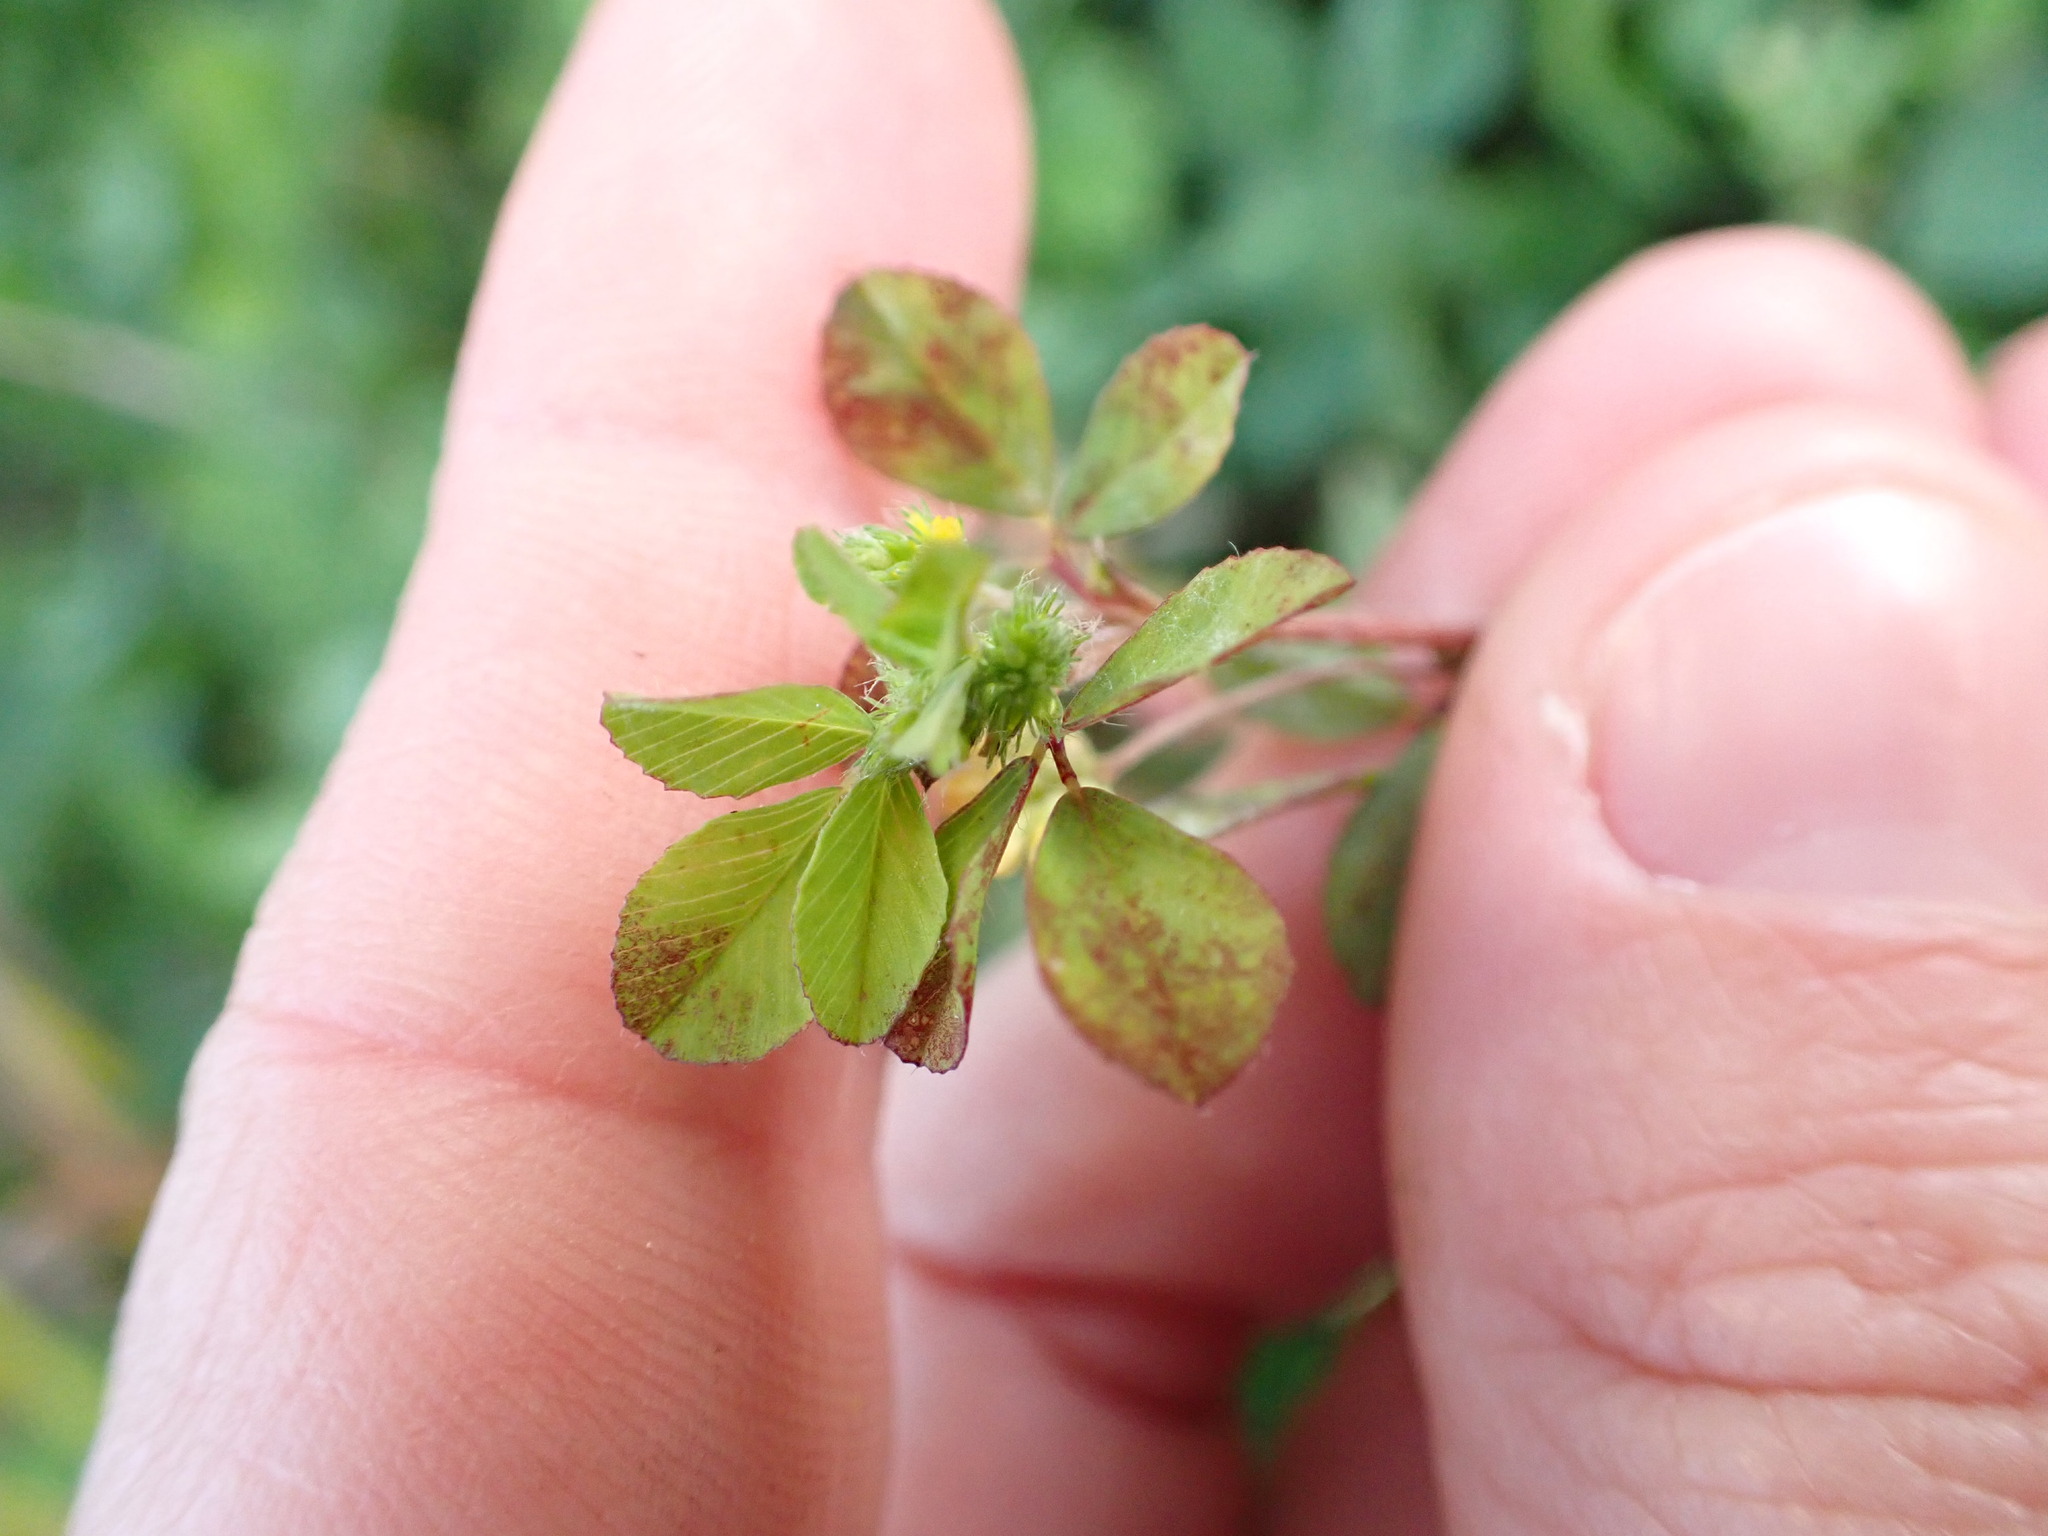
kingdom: Plantae
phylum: Tracheophyta
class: Magnoliopsida
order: Fabales
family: Fabaceae
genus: Trifolium
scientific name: Trifolium dubium
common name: Suckling clover
